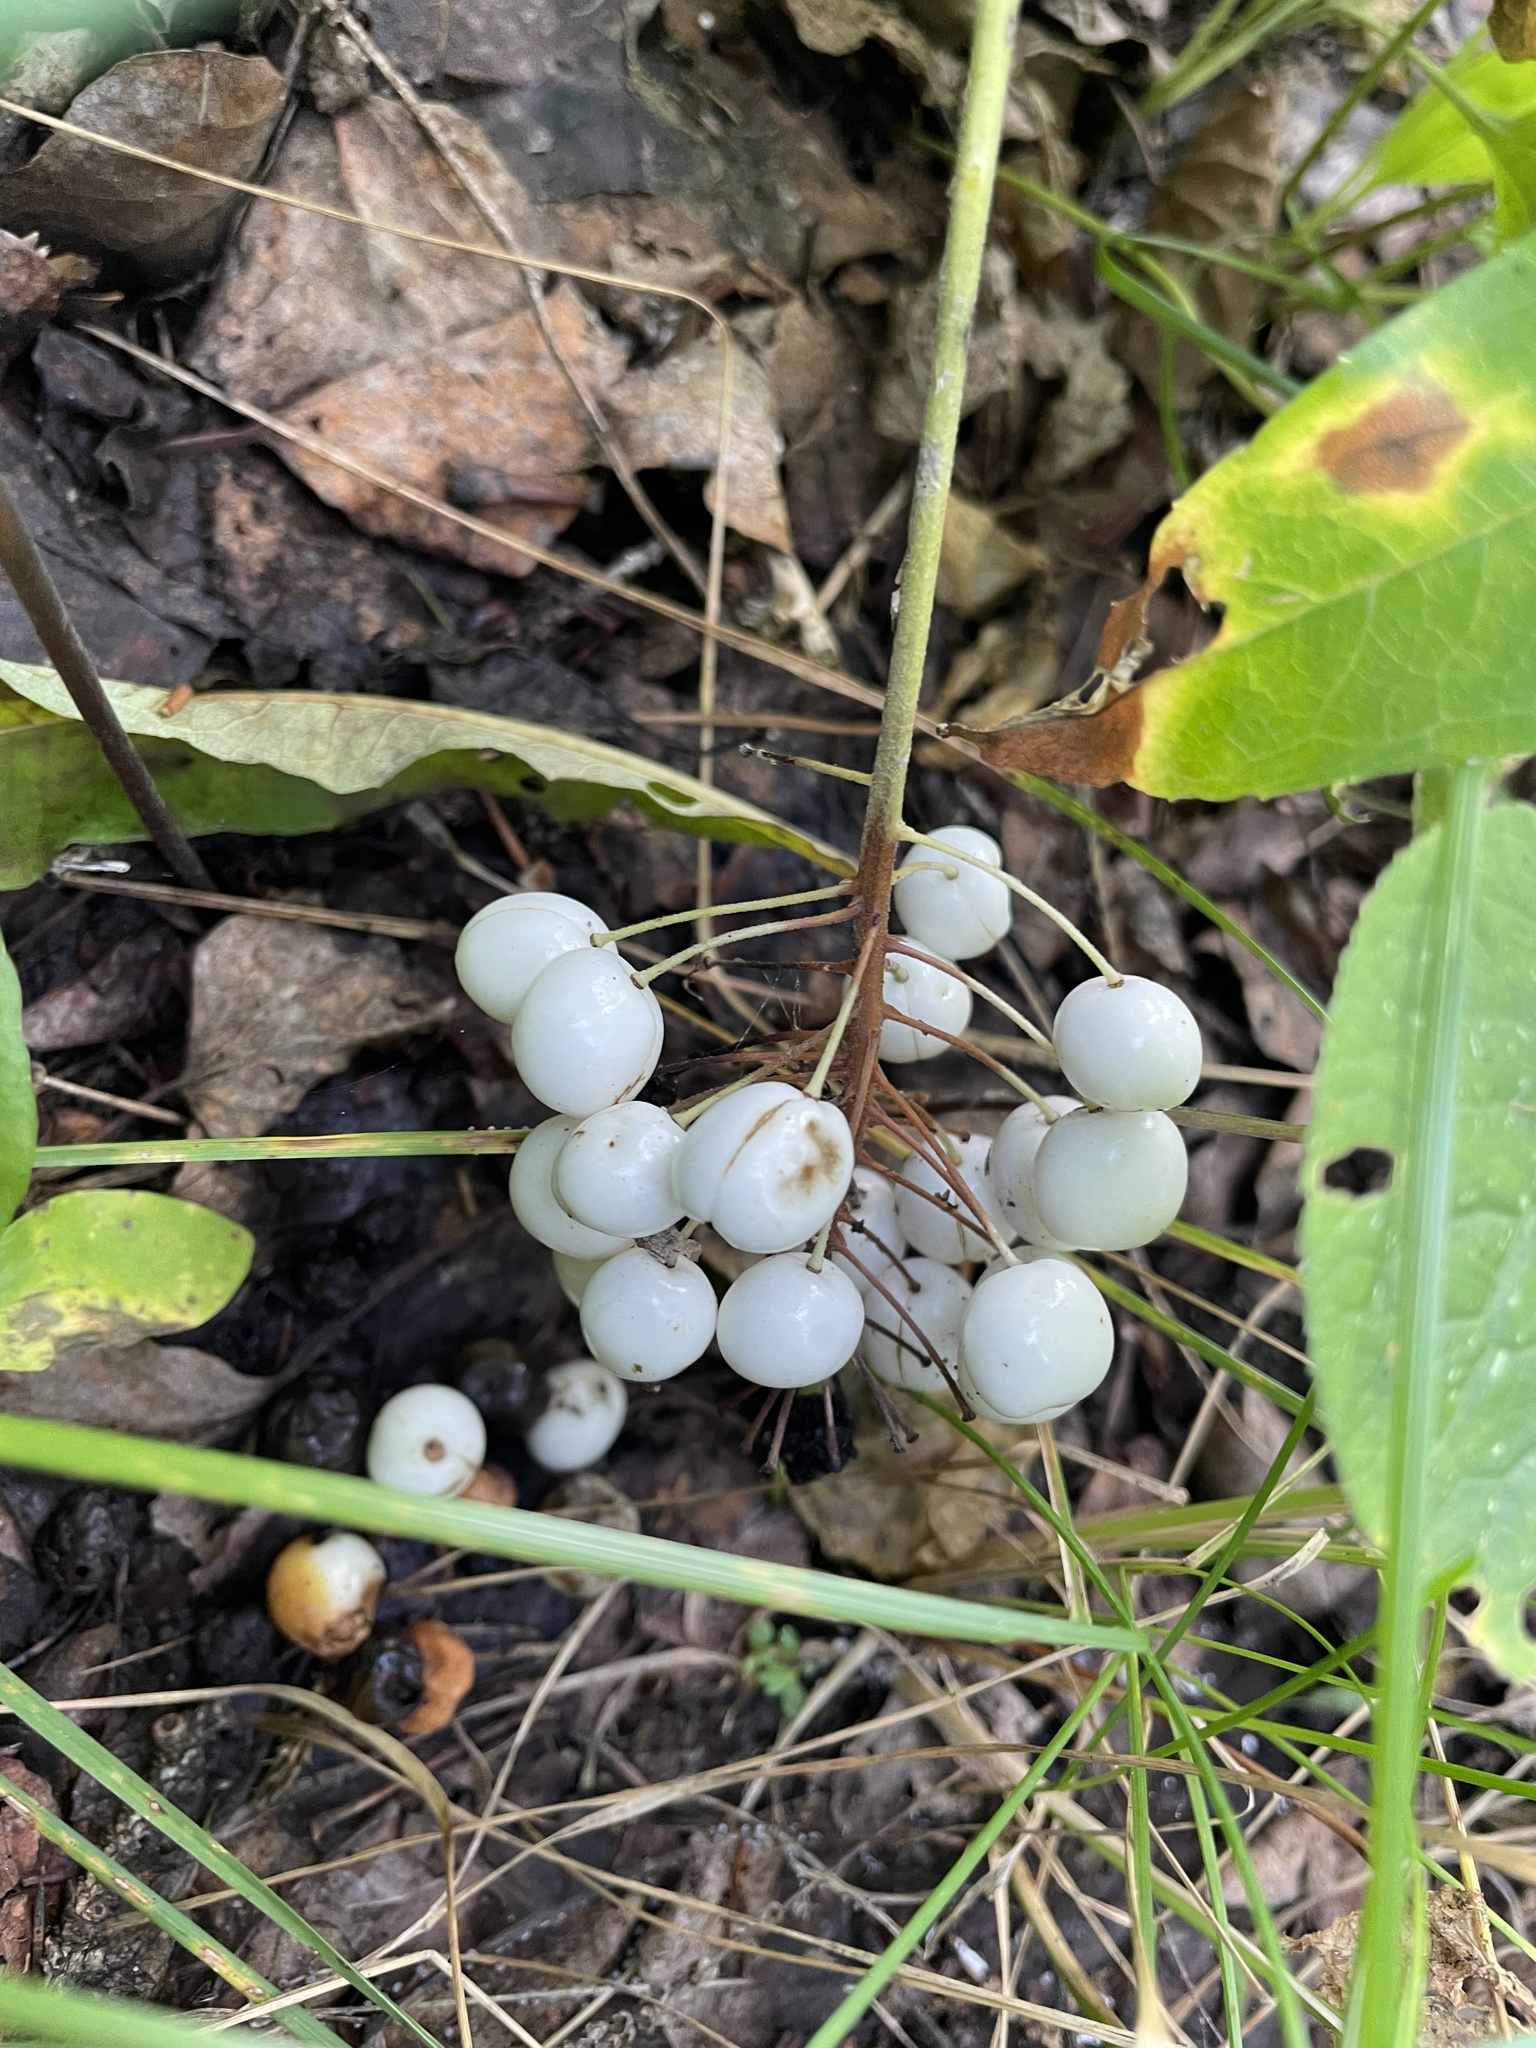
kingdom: Plantae
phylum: Tracheophyta
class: Magnoliopsida
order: Ranunculales
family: Ranunculaceae
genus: Actaea
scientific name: Actaea rubra
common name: Red baneberry
